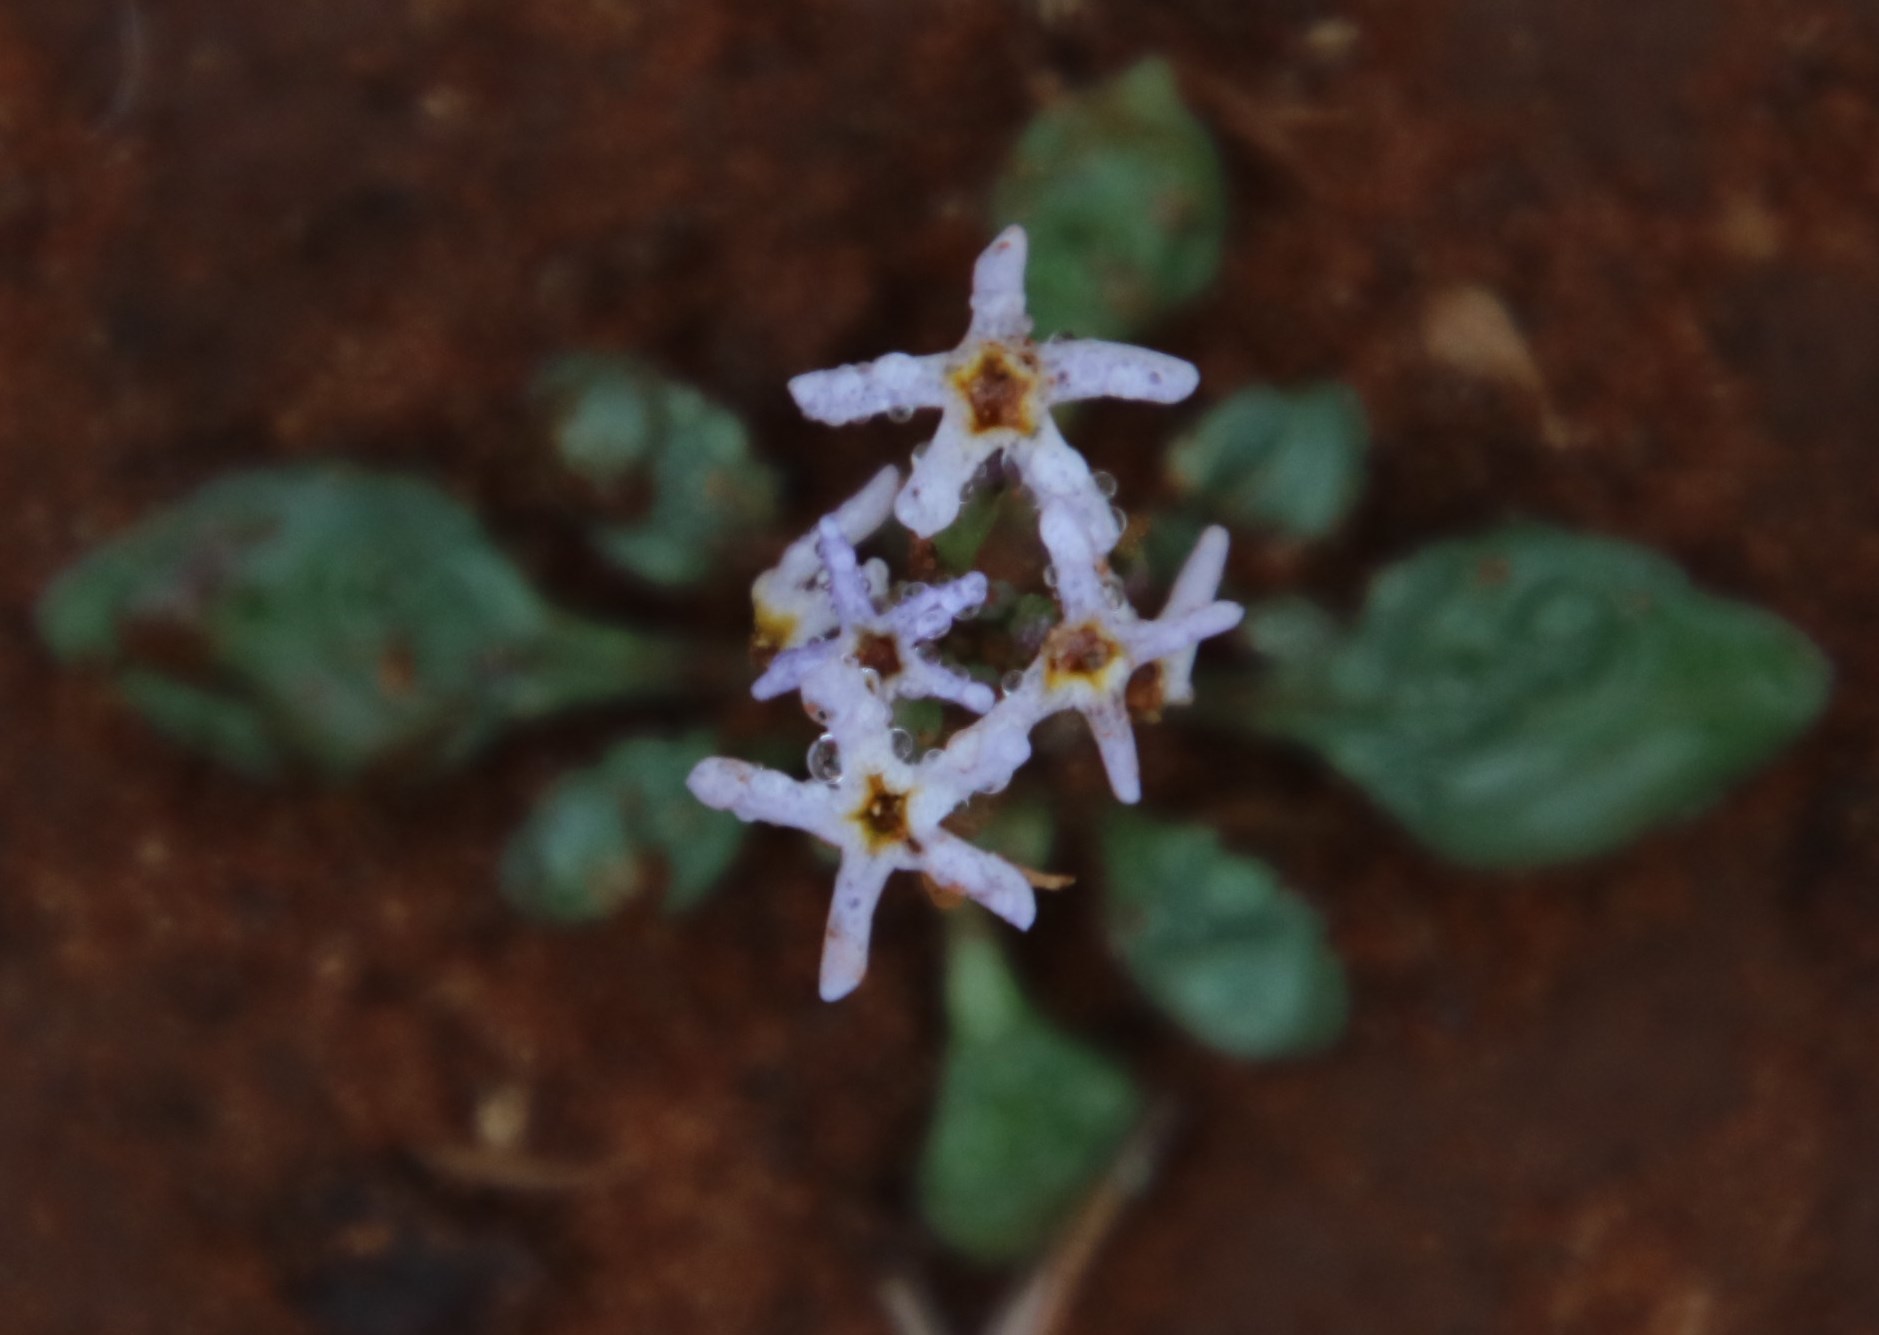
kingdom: Plantae
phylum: Tracheophyta
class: Magnoliopsida
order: Lamiales
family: Scrophulariaceae
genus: Manulea
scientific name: Manulea fragrans
